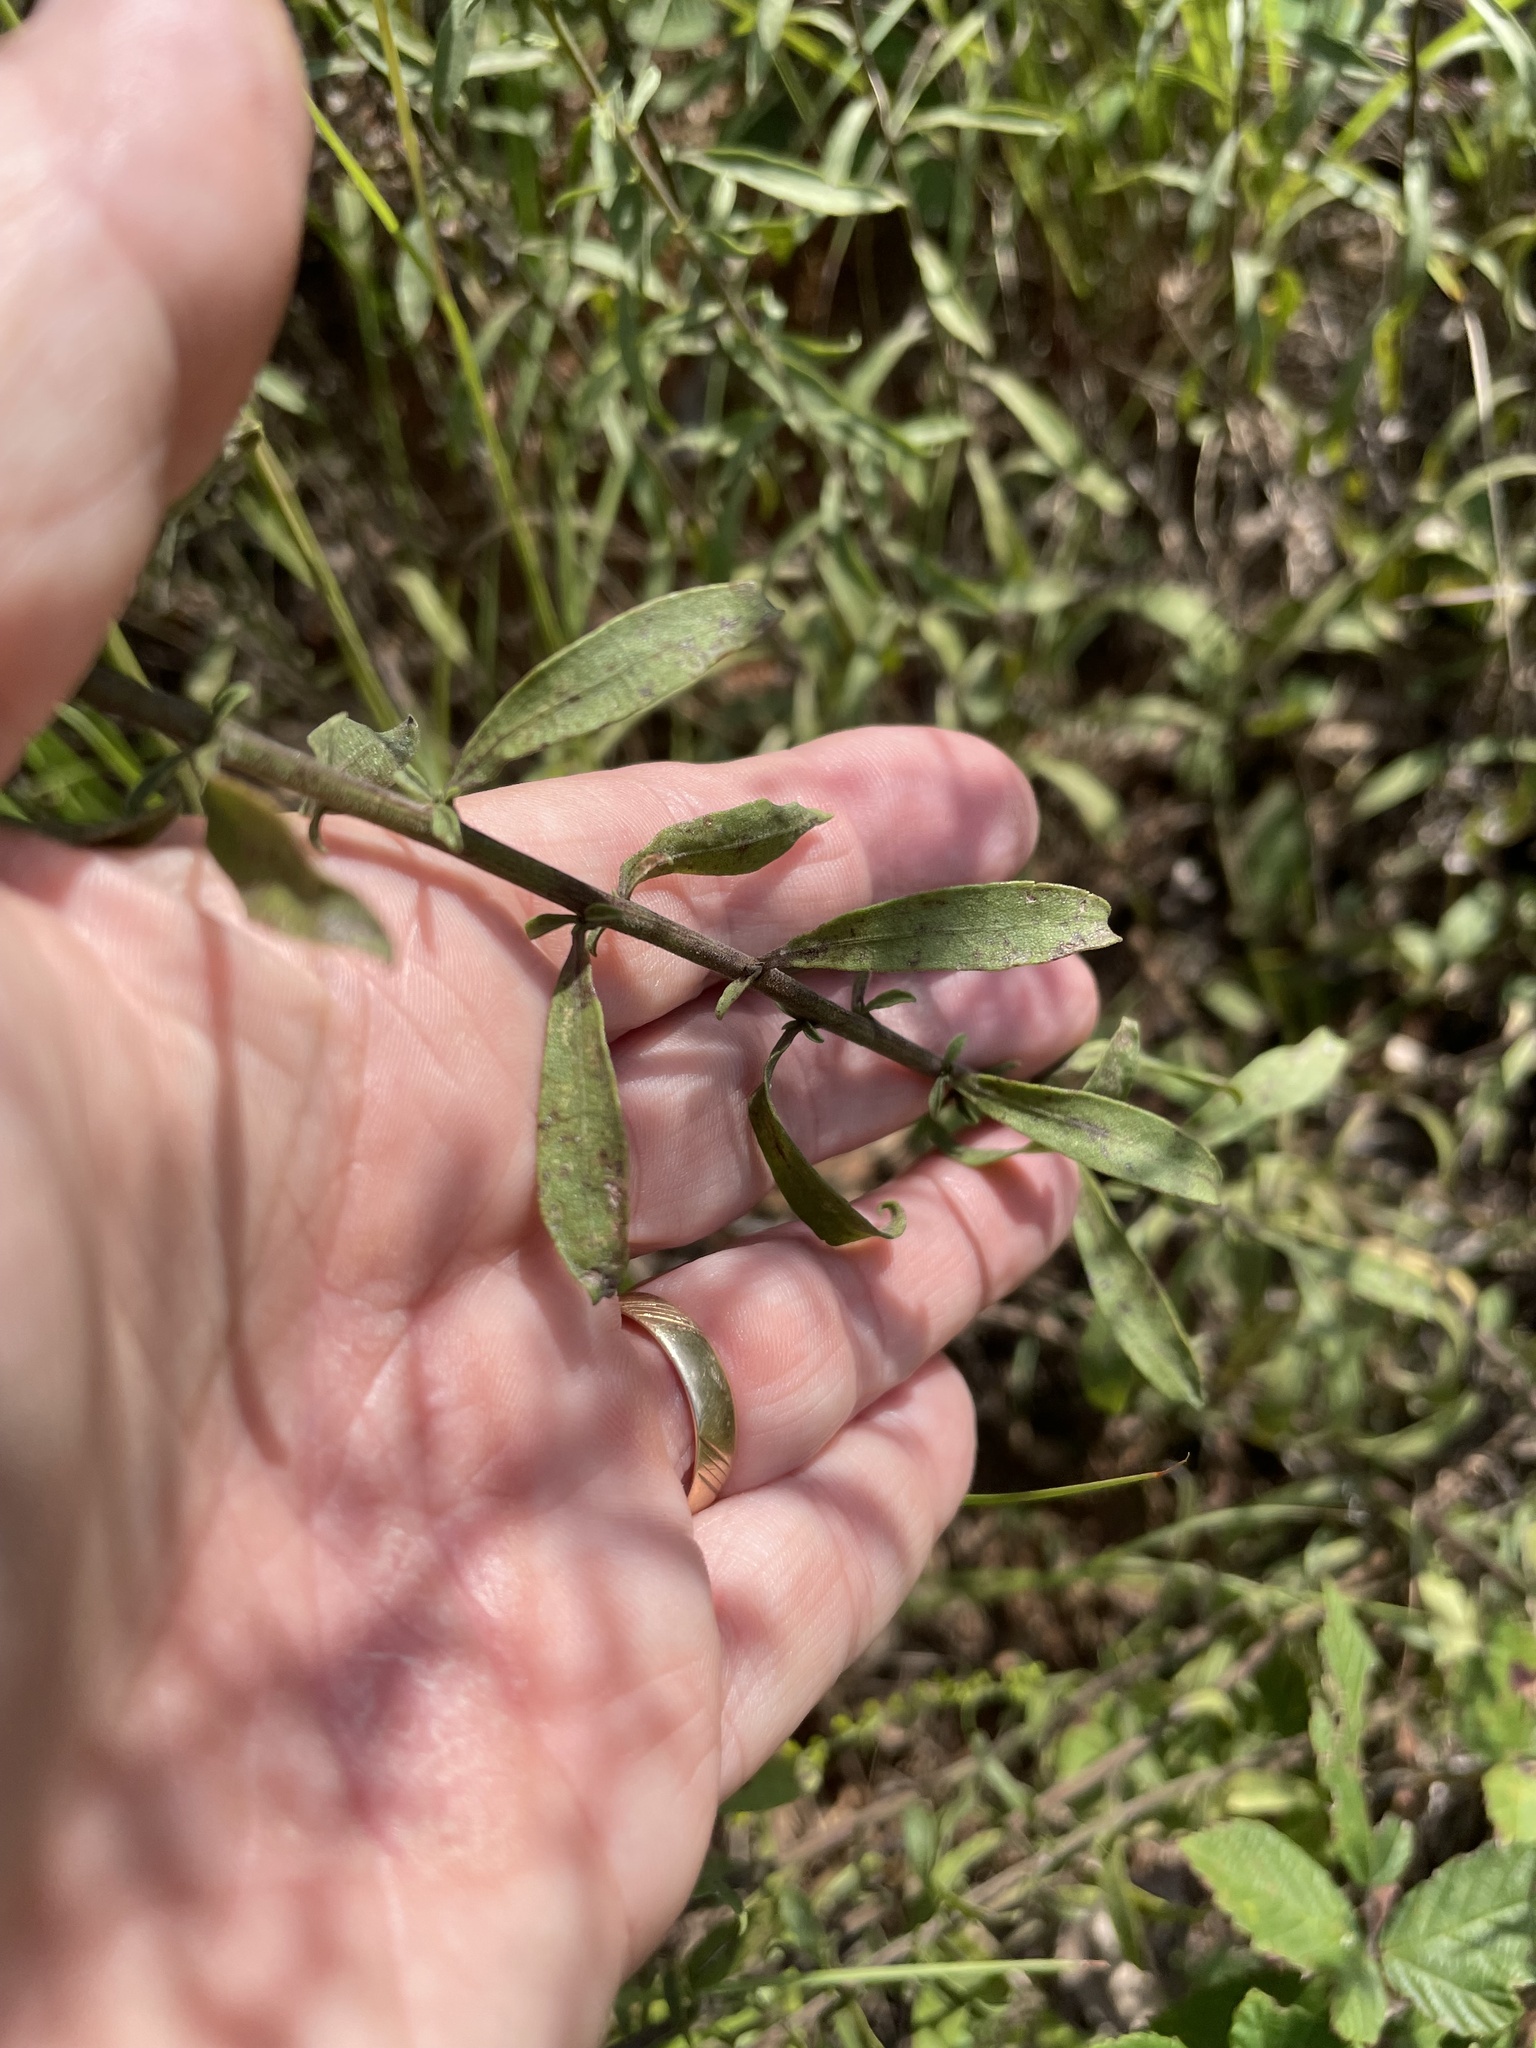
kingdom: Plantae
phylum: Tracheophyta
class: Magnoliopsida
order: Asterales
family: Asteraceae
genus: Solidago
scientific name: Solidago nemoralis
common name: Grey goldenrod
